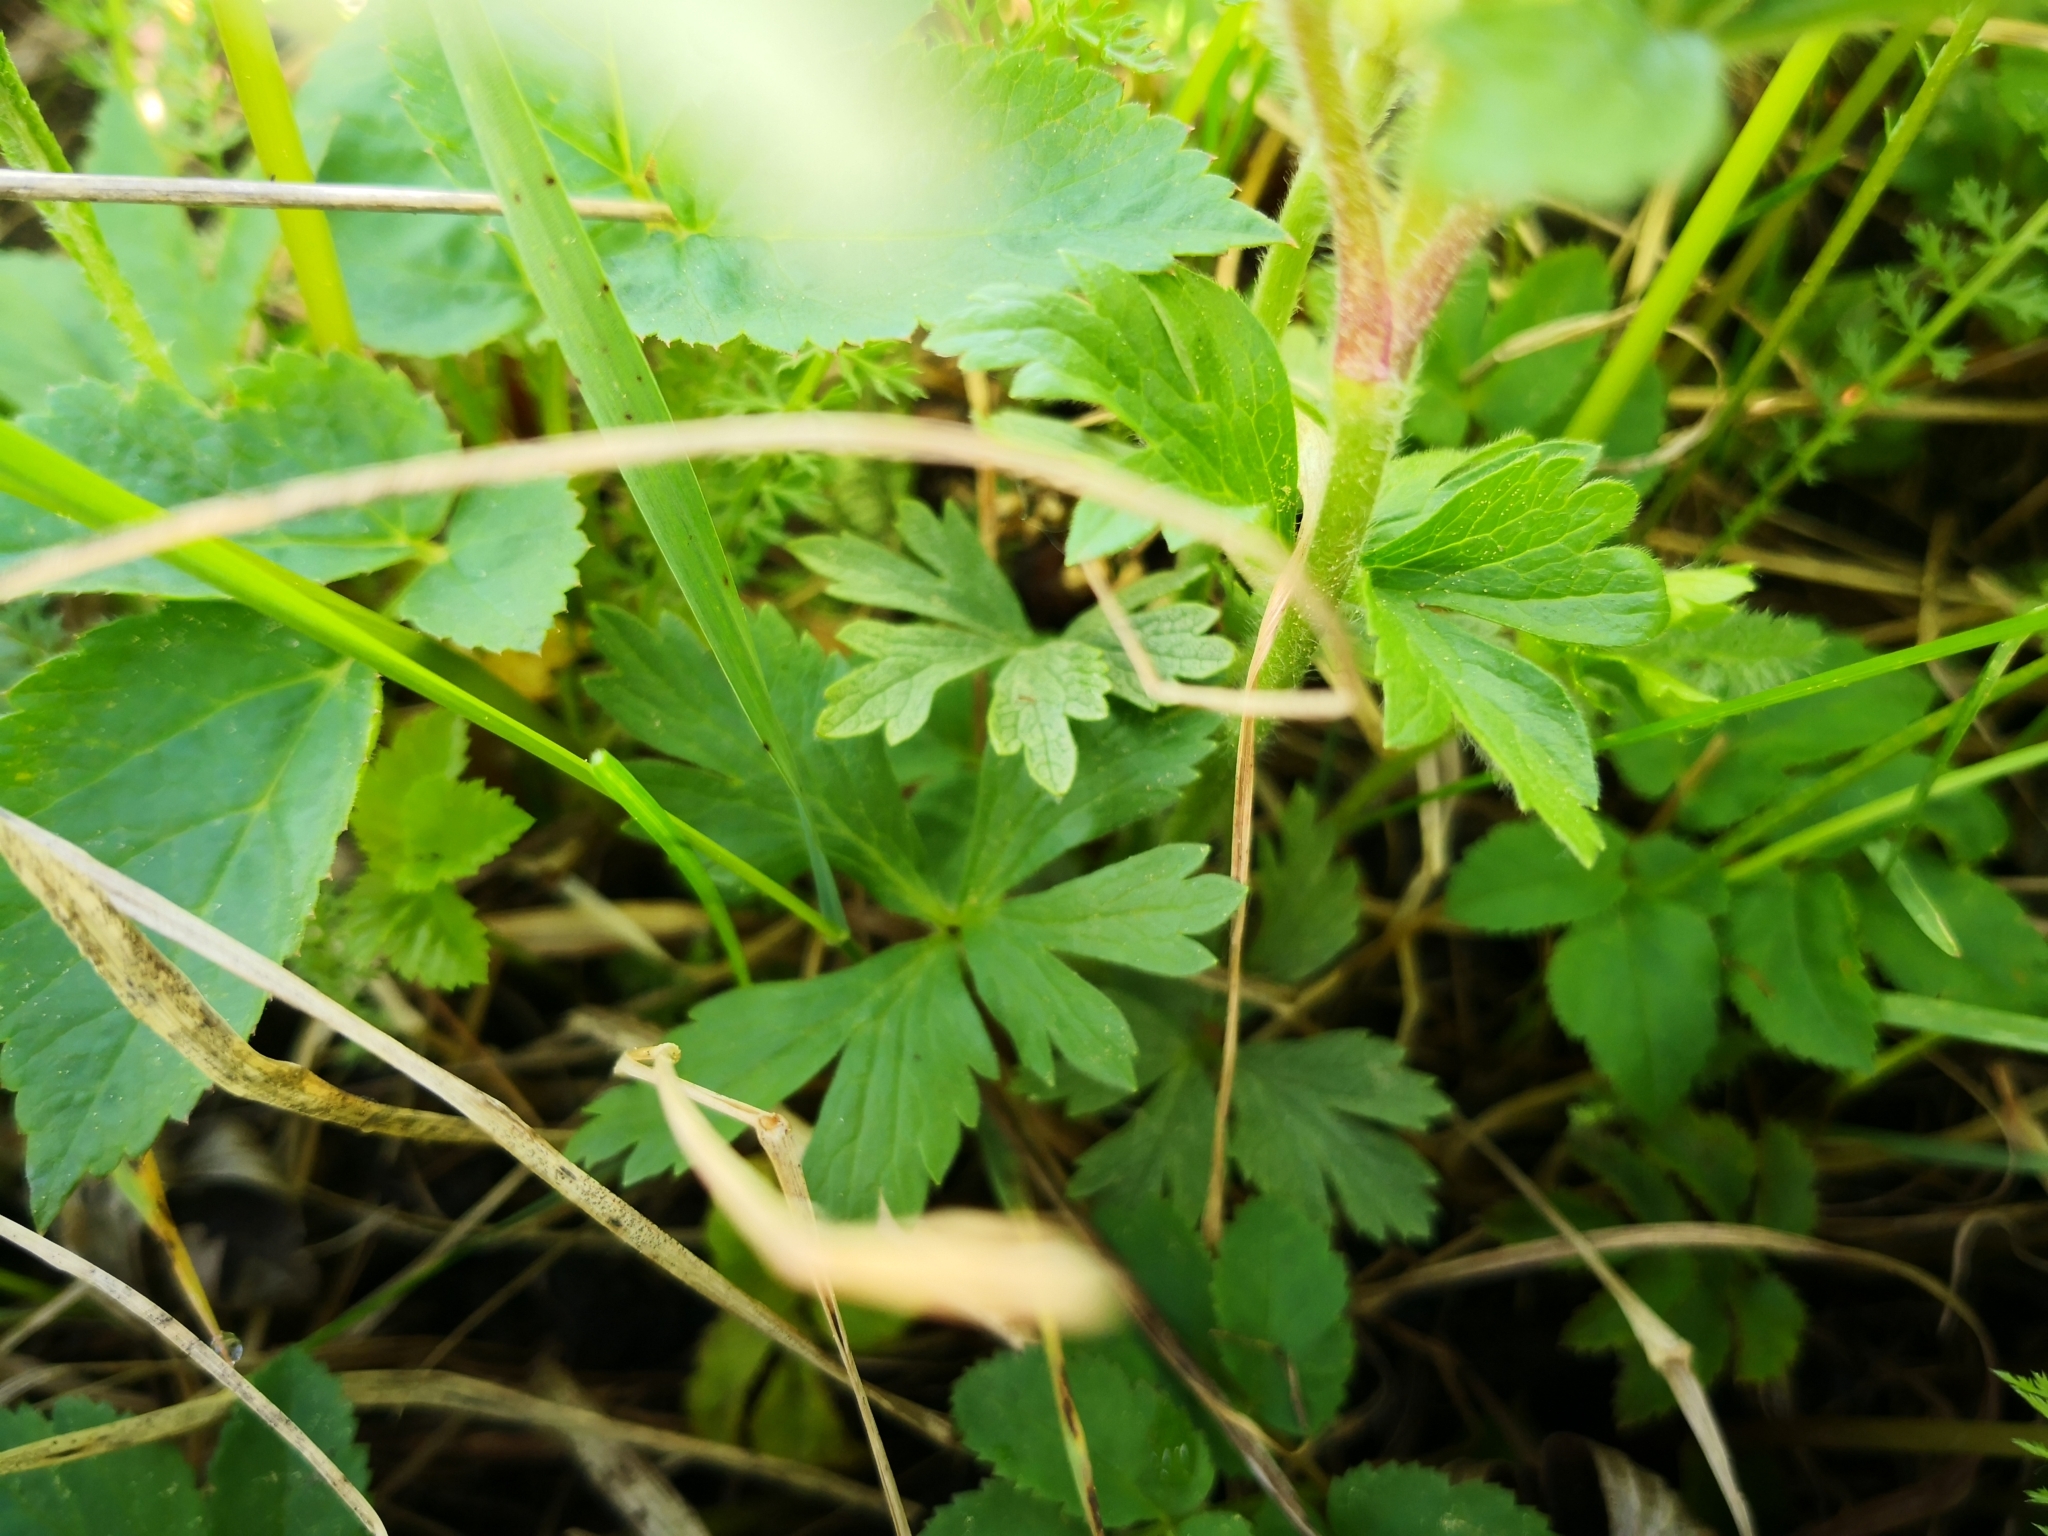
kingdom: Plantae
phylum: Tracheophyta
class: Magnoliopsida
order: Ranunculales
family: Ranunculaceae
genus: Anemone
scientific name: Anemone sylvestris
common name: Snowdrop anemone
